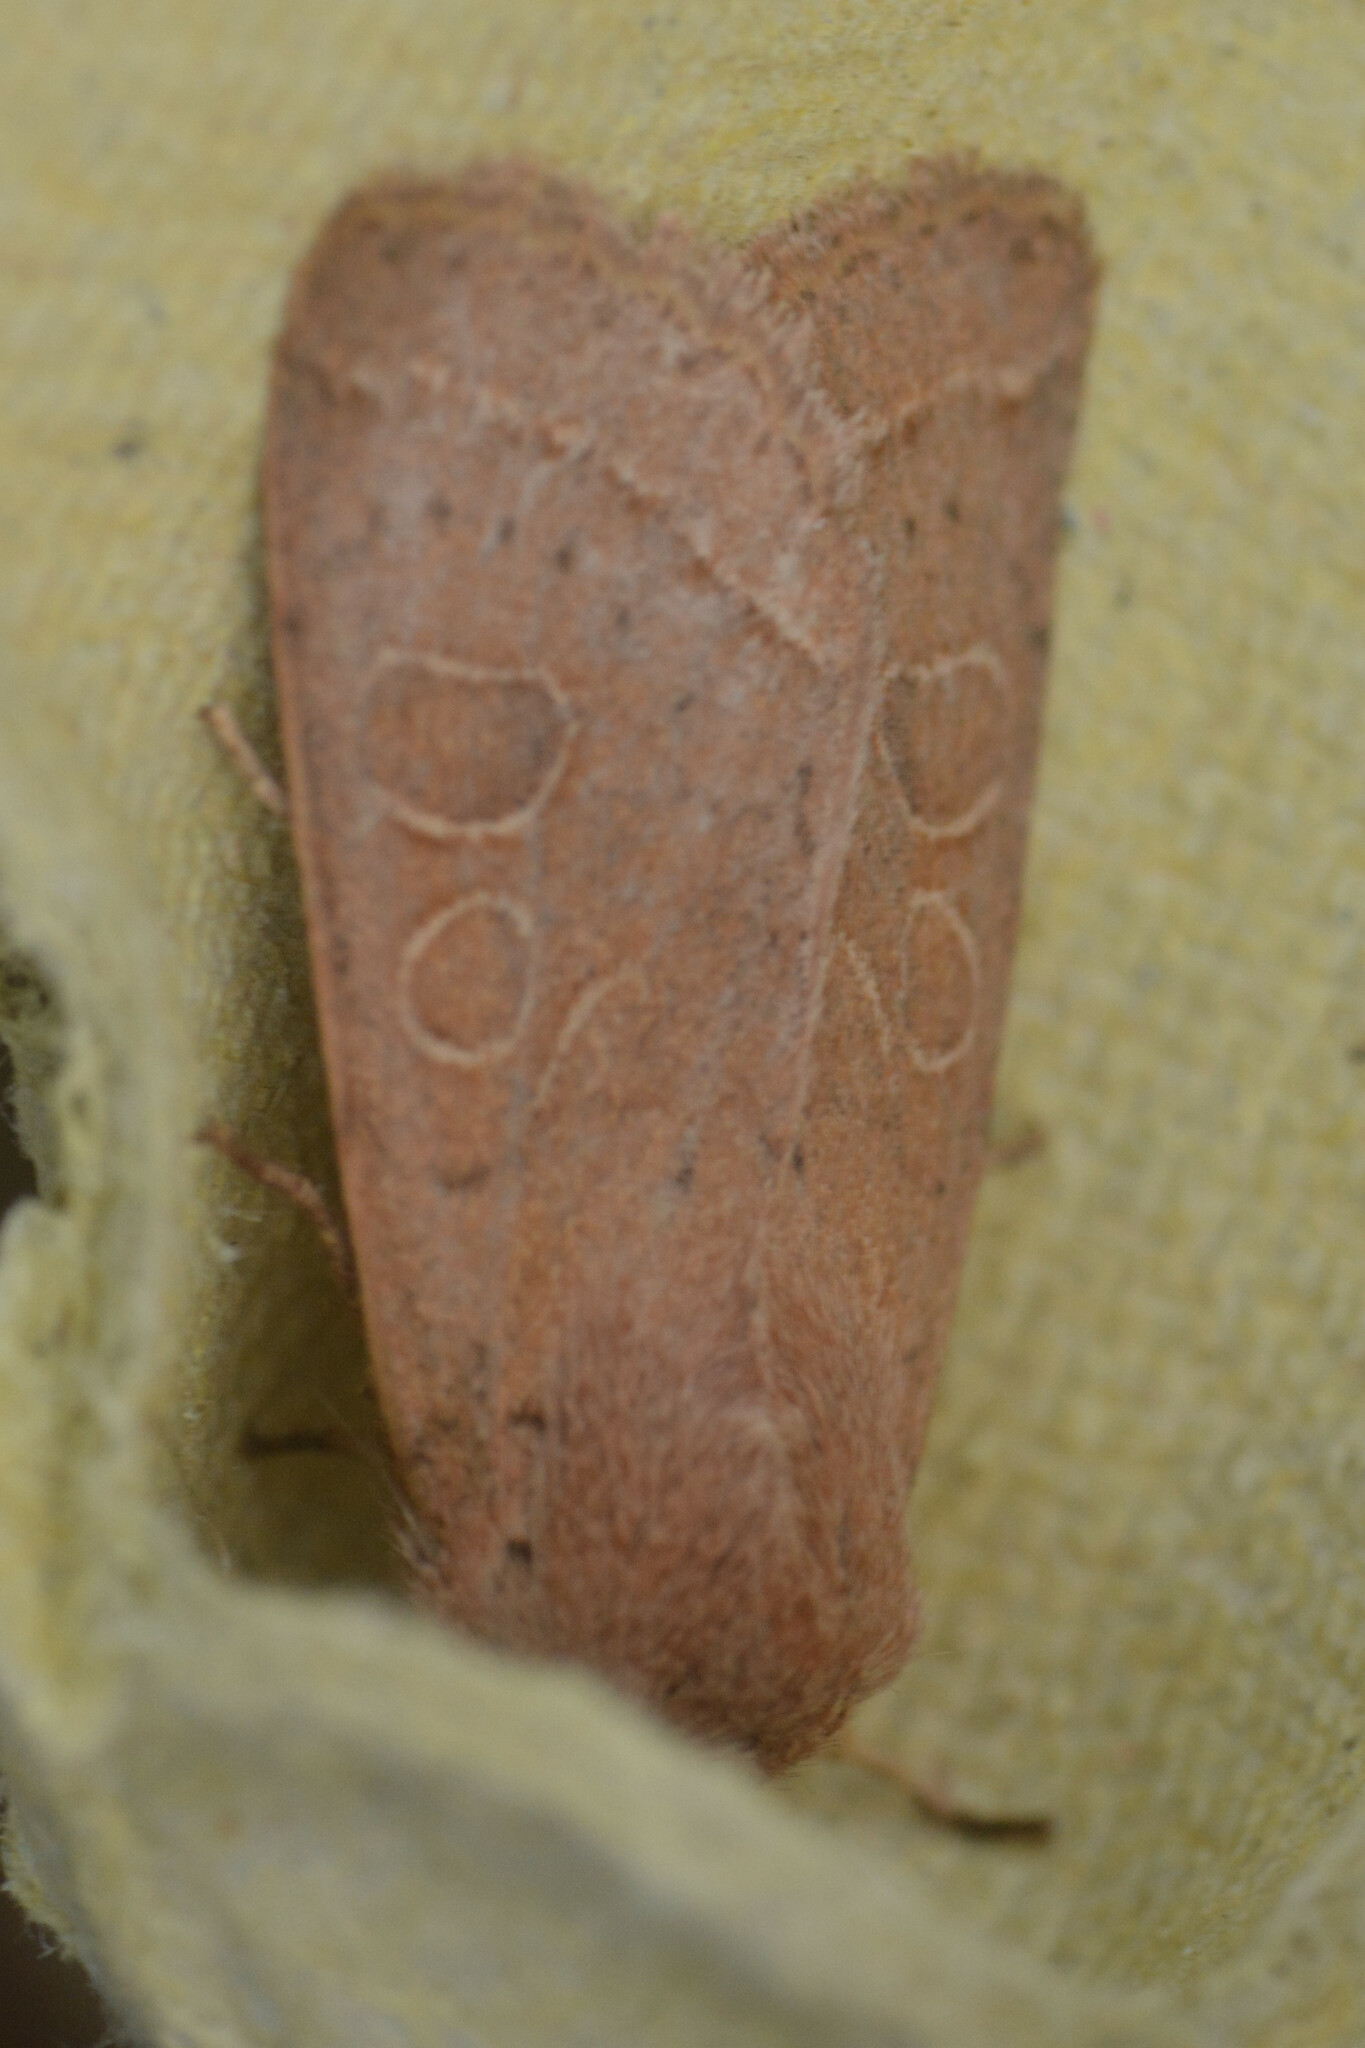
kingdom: Animalia
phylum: Arthropoda
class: Insecta
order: Lepidoptera
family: Noctuidae
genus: Orthosia
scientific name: Orthosia cerasi
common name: Common quaker
